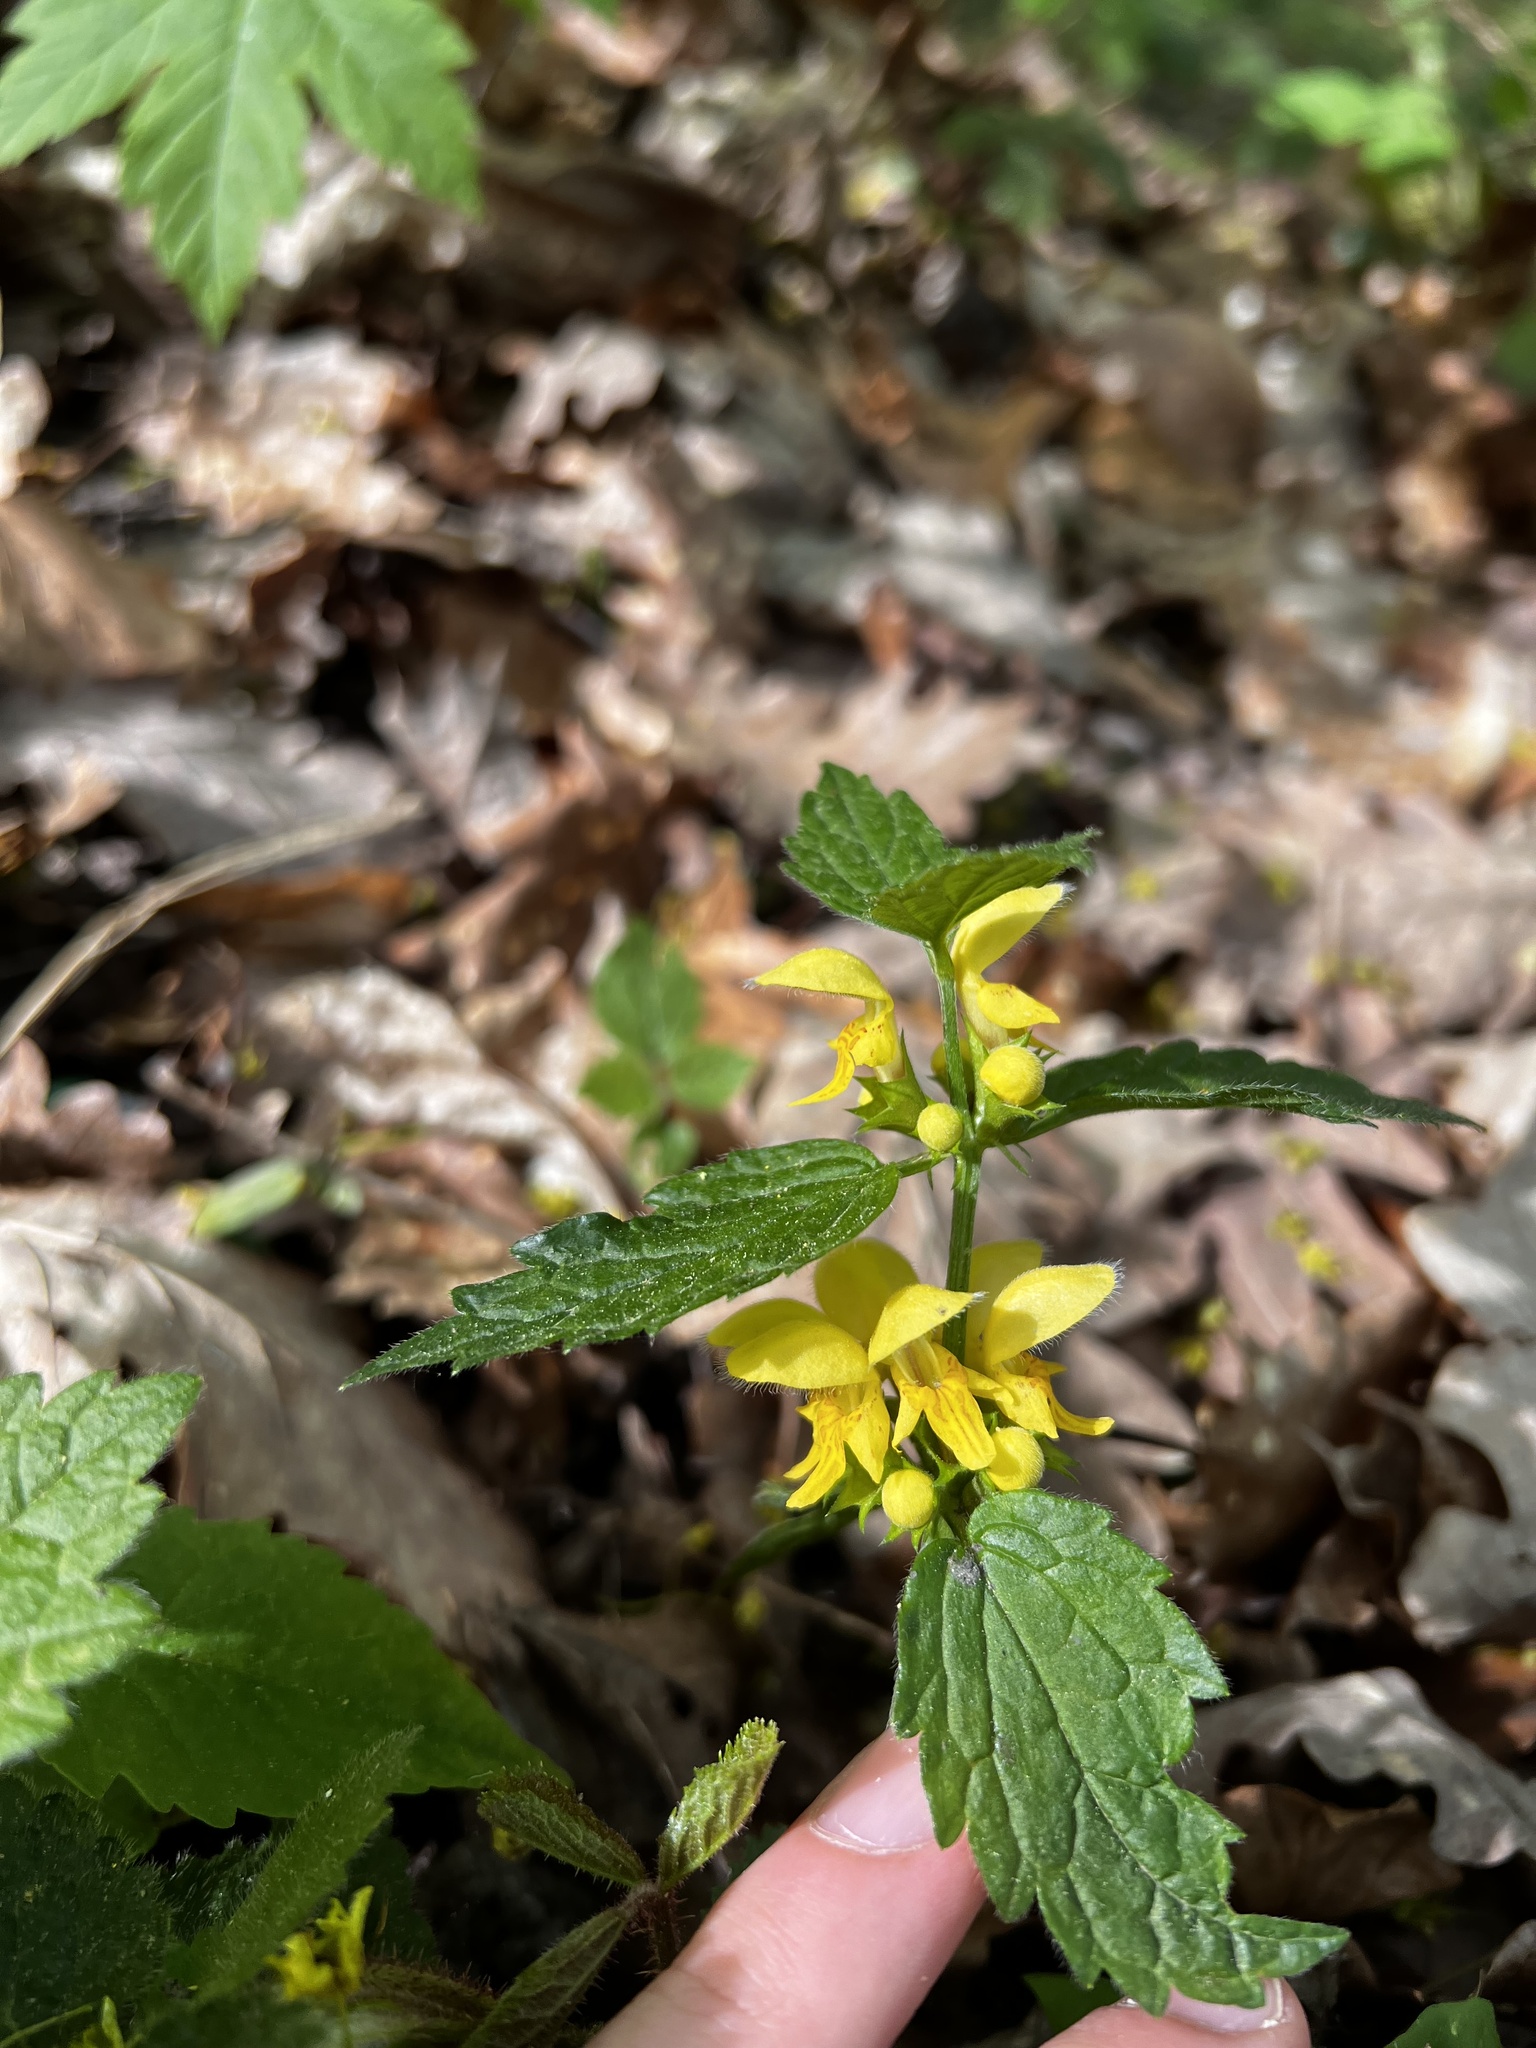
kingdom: Plantae
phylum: Tracheophyta
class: Magnoliopsida
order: Lamiales
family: Lamiaceae
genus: Lamium
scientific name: Lamium galeobdolon
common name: Yellow archangel
